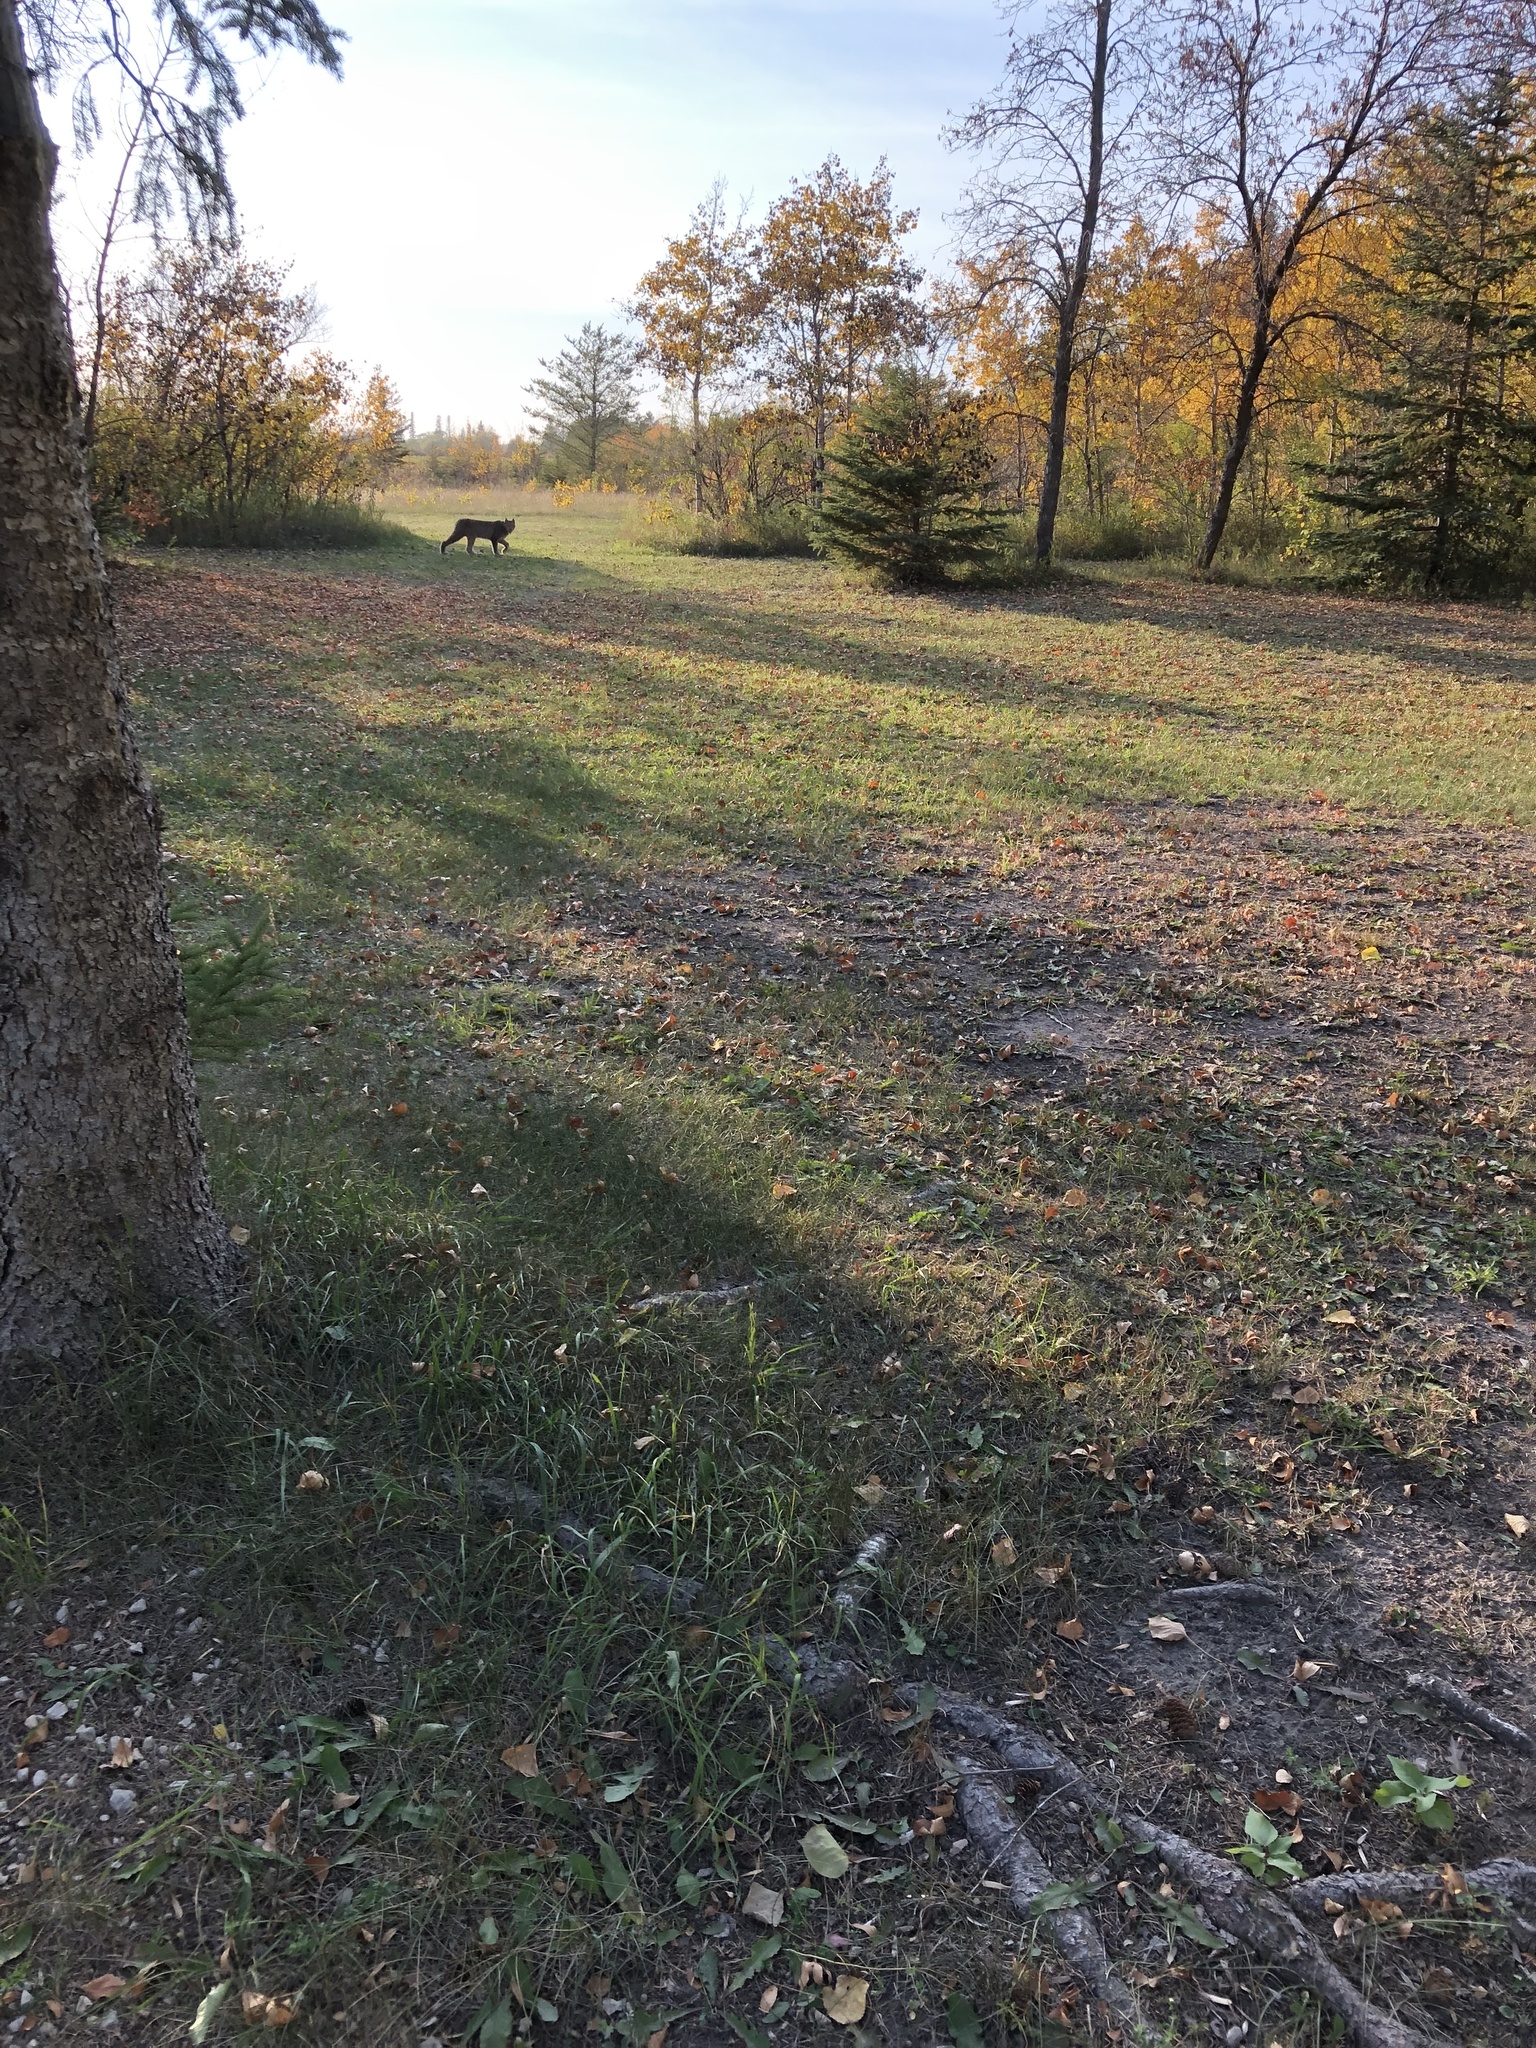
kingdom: Animalia
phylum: Chordata
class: Mammalia
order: Carnivora
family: Felidae
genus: Lynx
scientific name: Lynx canadensis
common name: Canadian lynx
